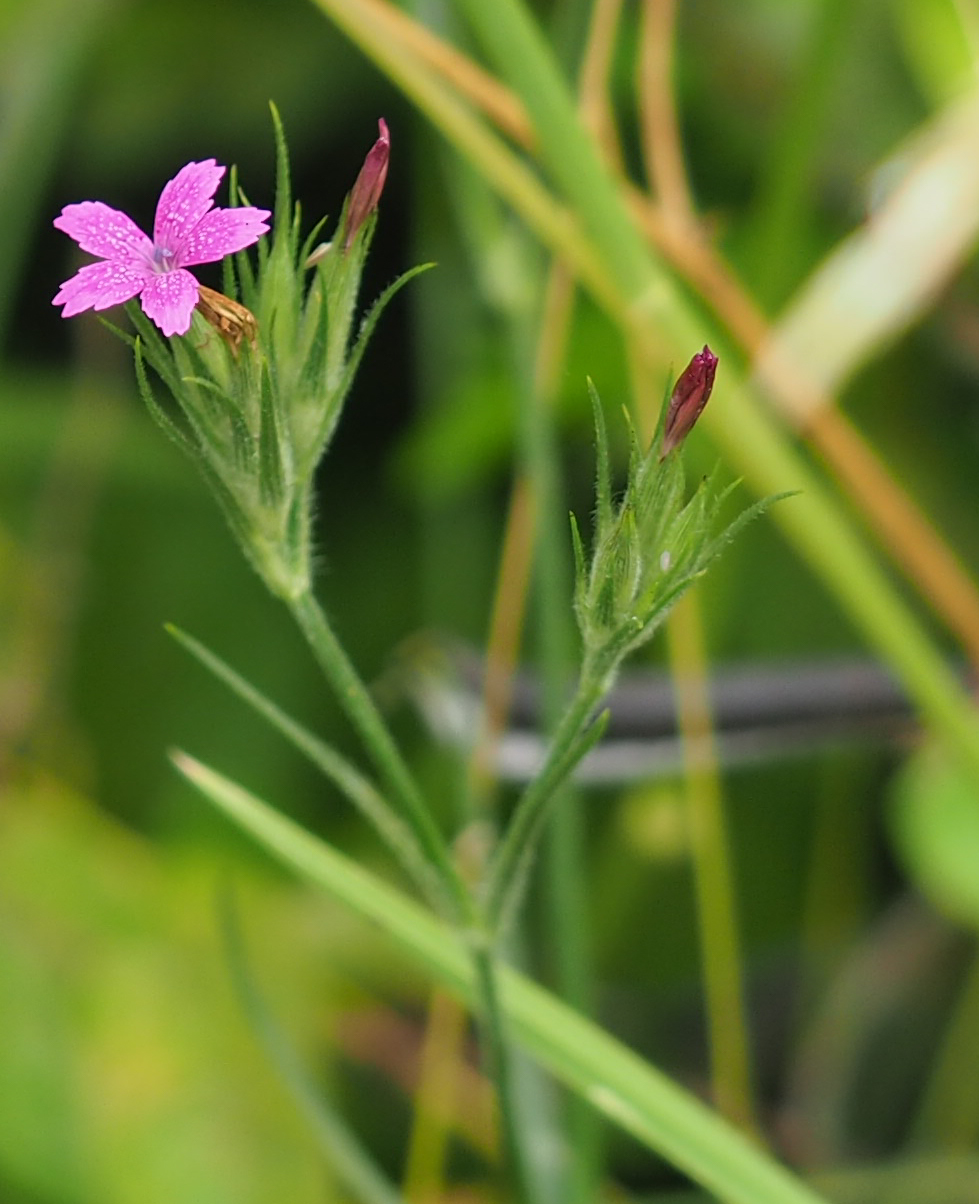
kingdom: Plantae
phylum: Tracheophyta
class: Magnoliopsida
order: Caryophyllales
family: Caryophyllaceae
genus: Dianthus
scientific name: Dianthus armeria
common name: Deptford pink
